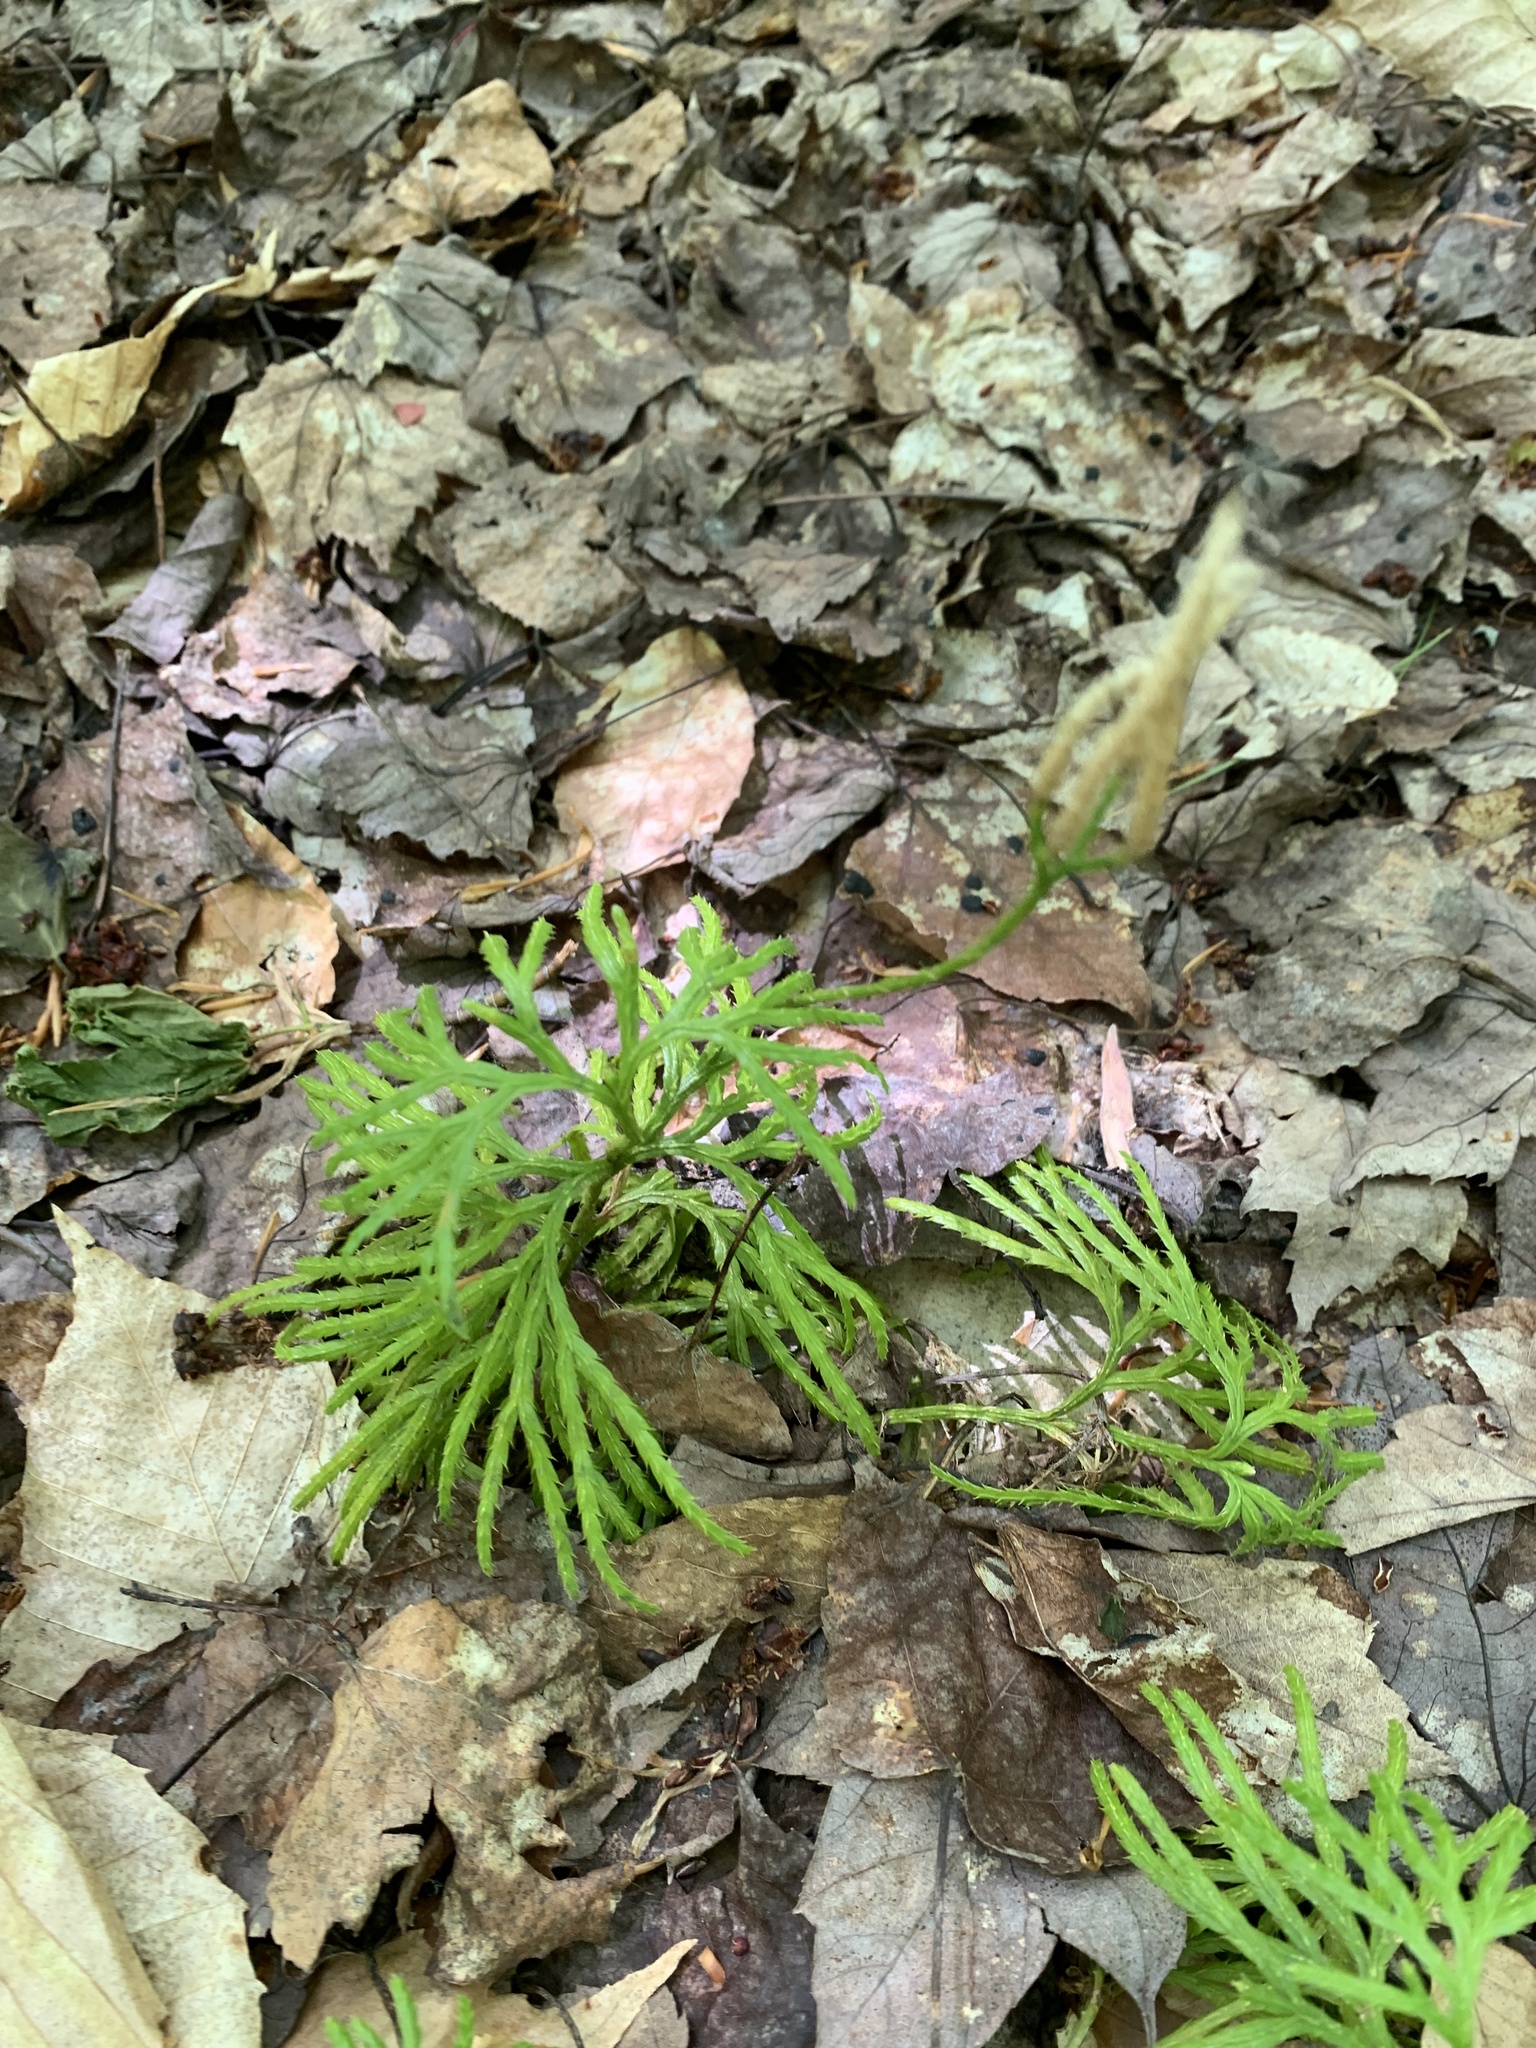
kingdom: Plantae
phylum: Tracheophyta
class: Lycopodiopsida
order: Lycopodiales
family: Lycopodiaceae
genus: Diphasiastrum
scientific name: Diphasiastrum digitatum
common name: Southern running-pine
